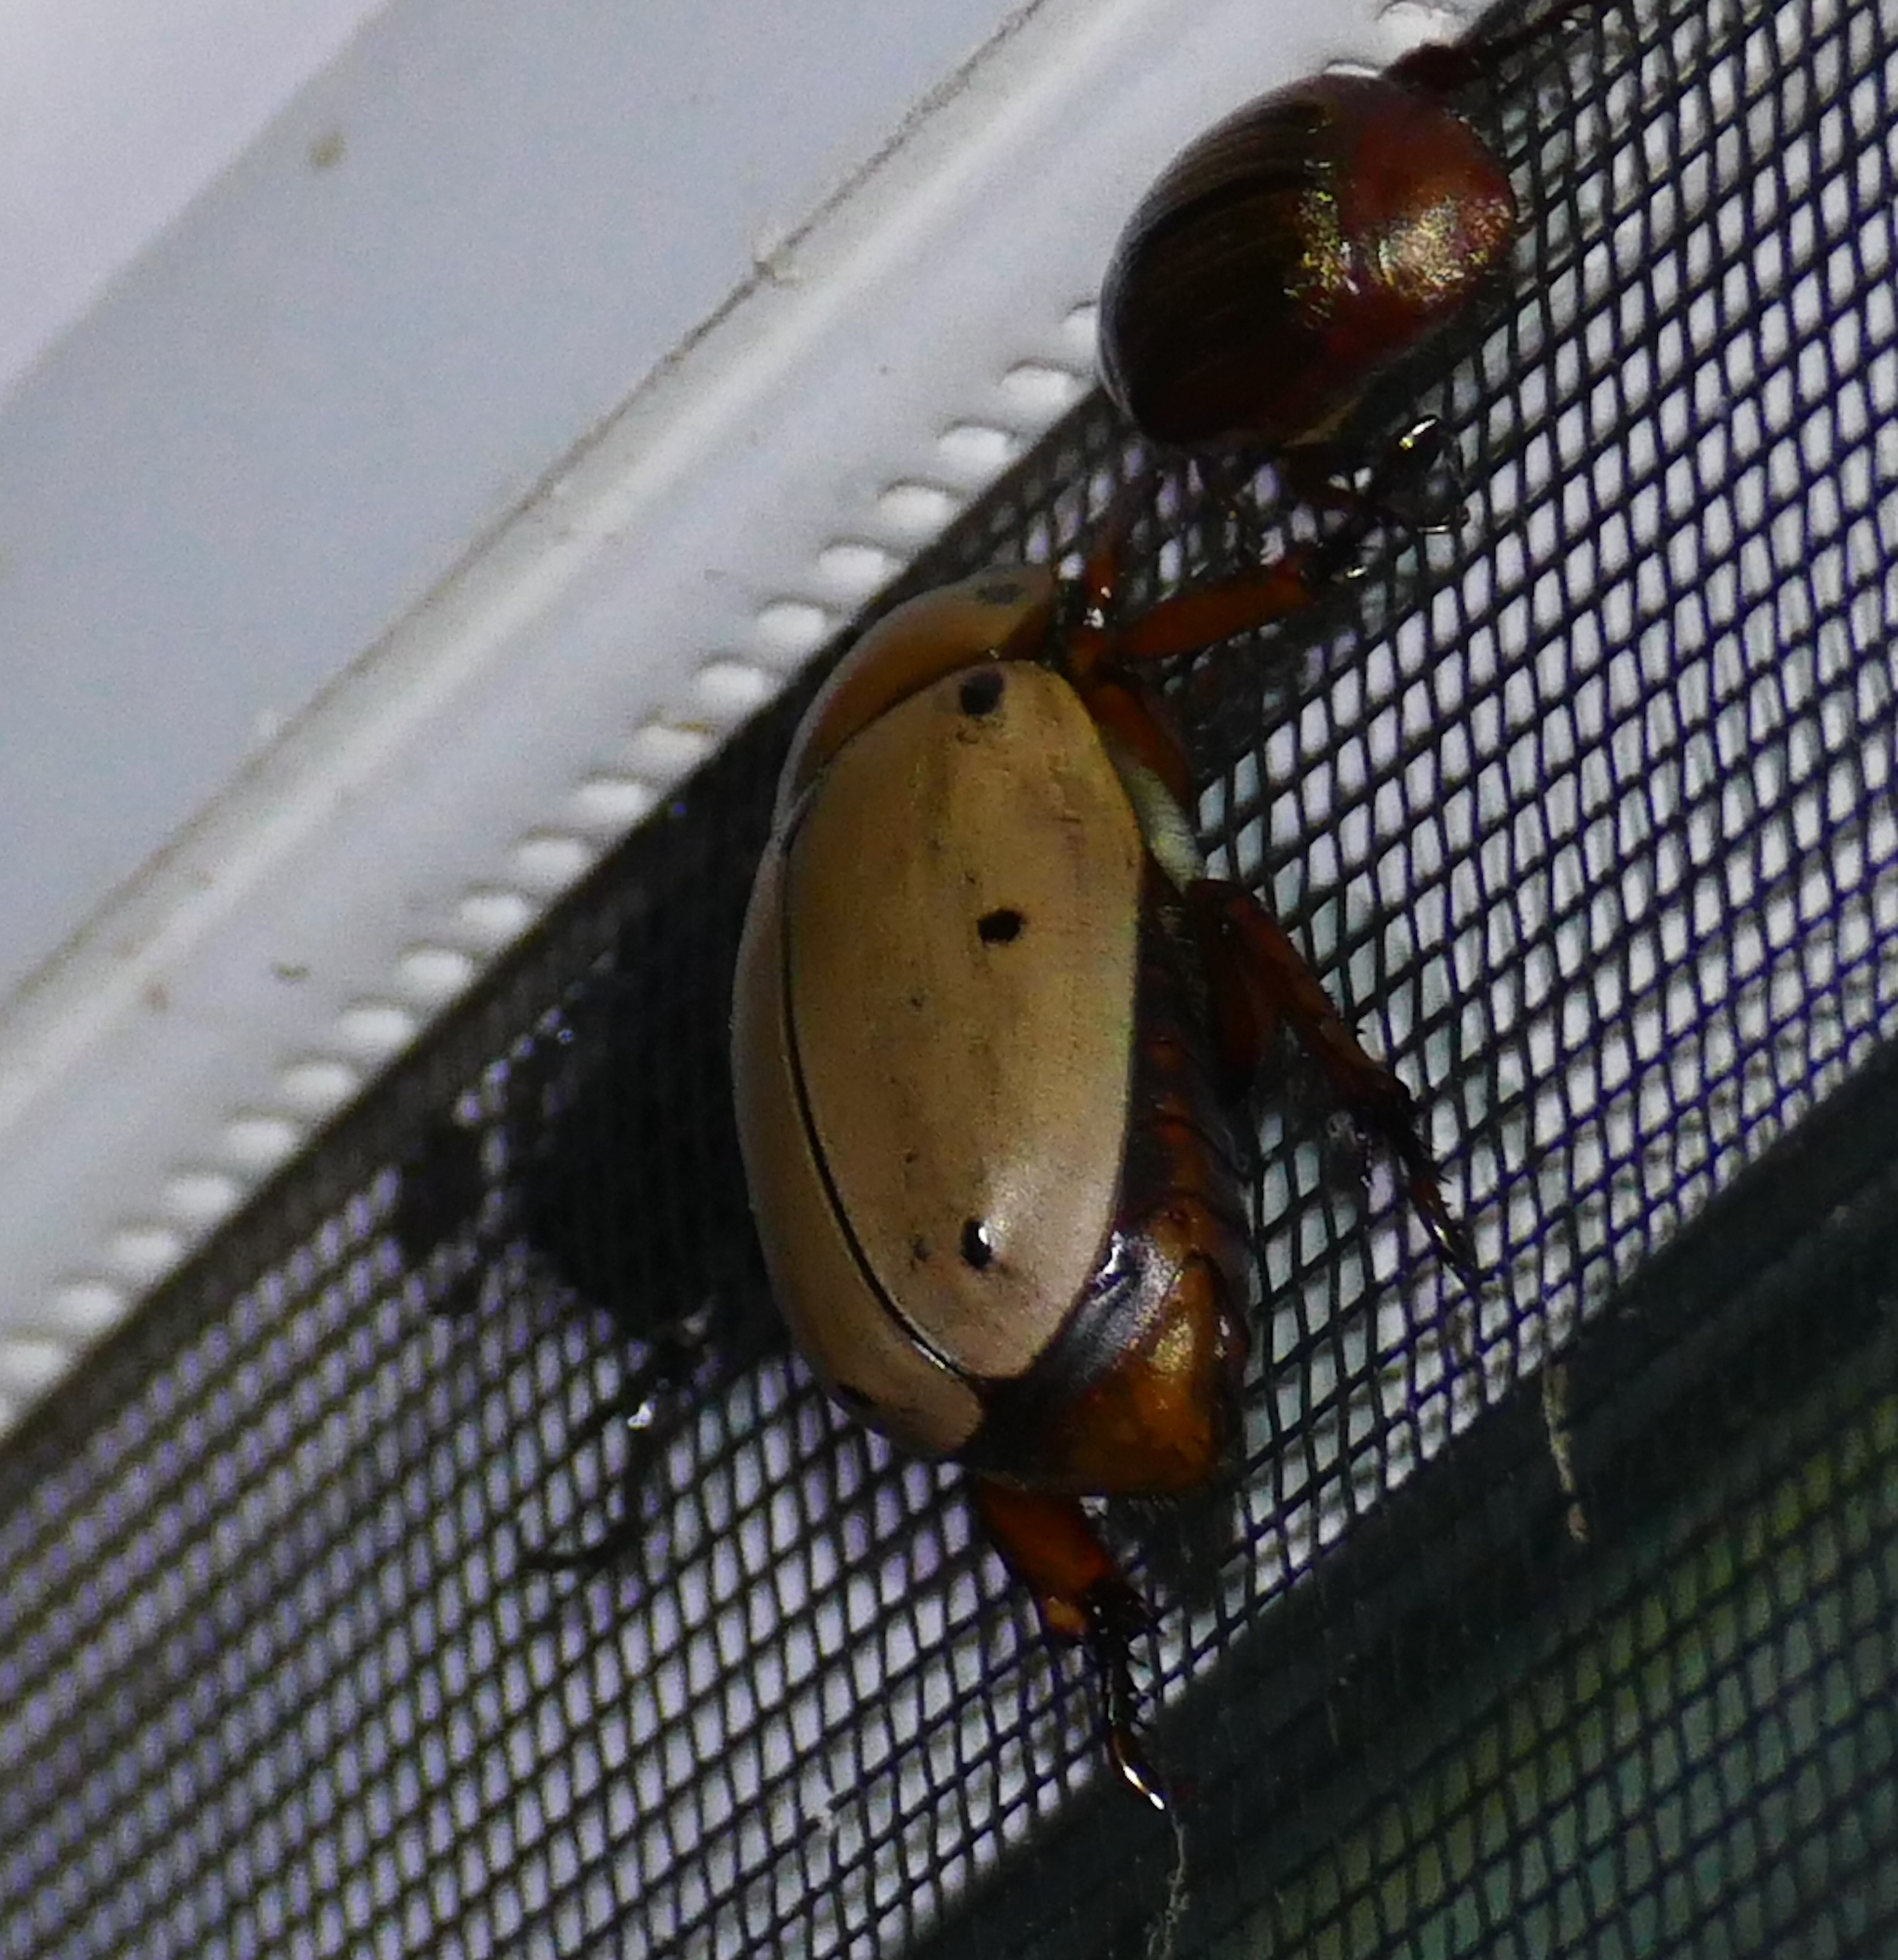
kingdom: Animalia
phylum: Arthropoda
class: Insecta
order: Coleoptera
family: Scarabaeidae
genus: Pelidnota
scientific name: Pelidnota punctata
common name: Grapevine beetle
